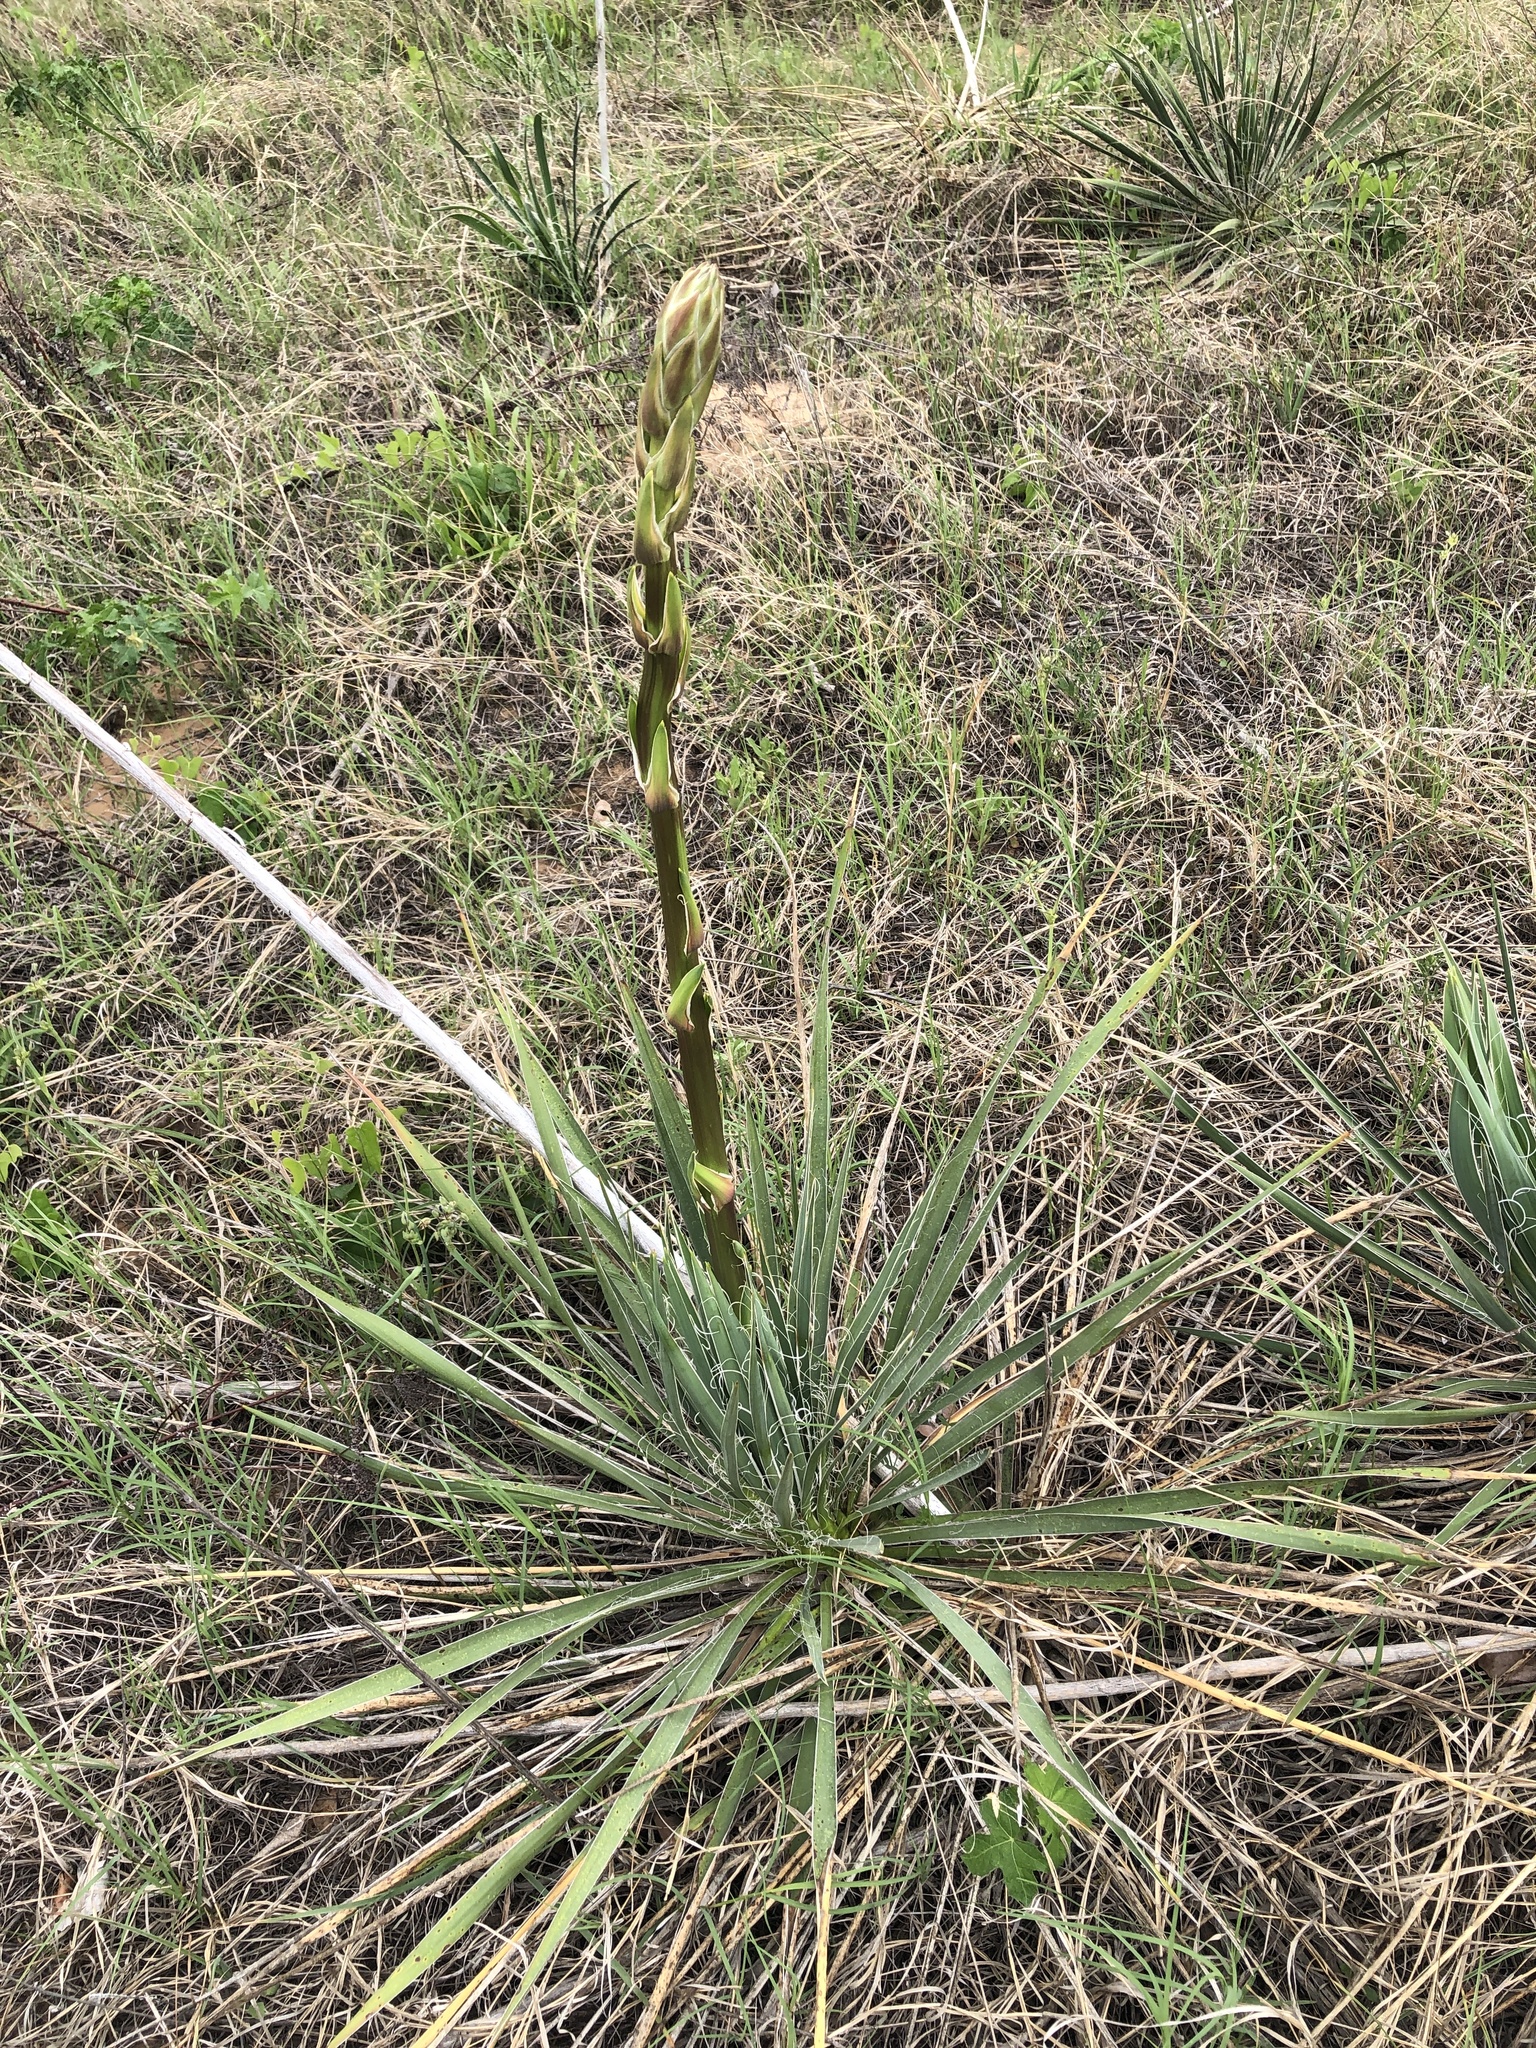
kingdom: Plantae
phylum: Tracheophyta
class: Liliopsida
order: Asparagales
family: Asparagaceae
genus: Yucca
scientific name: Yucca necopina
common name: Glen rose yucca
